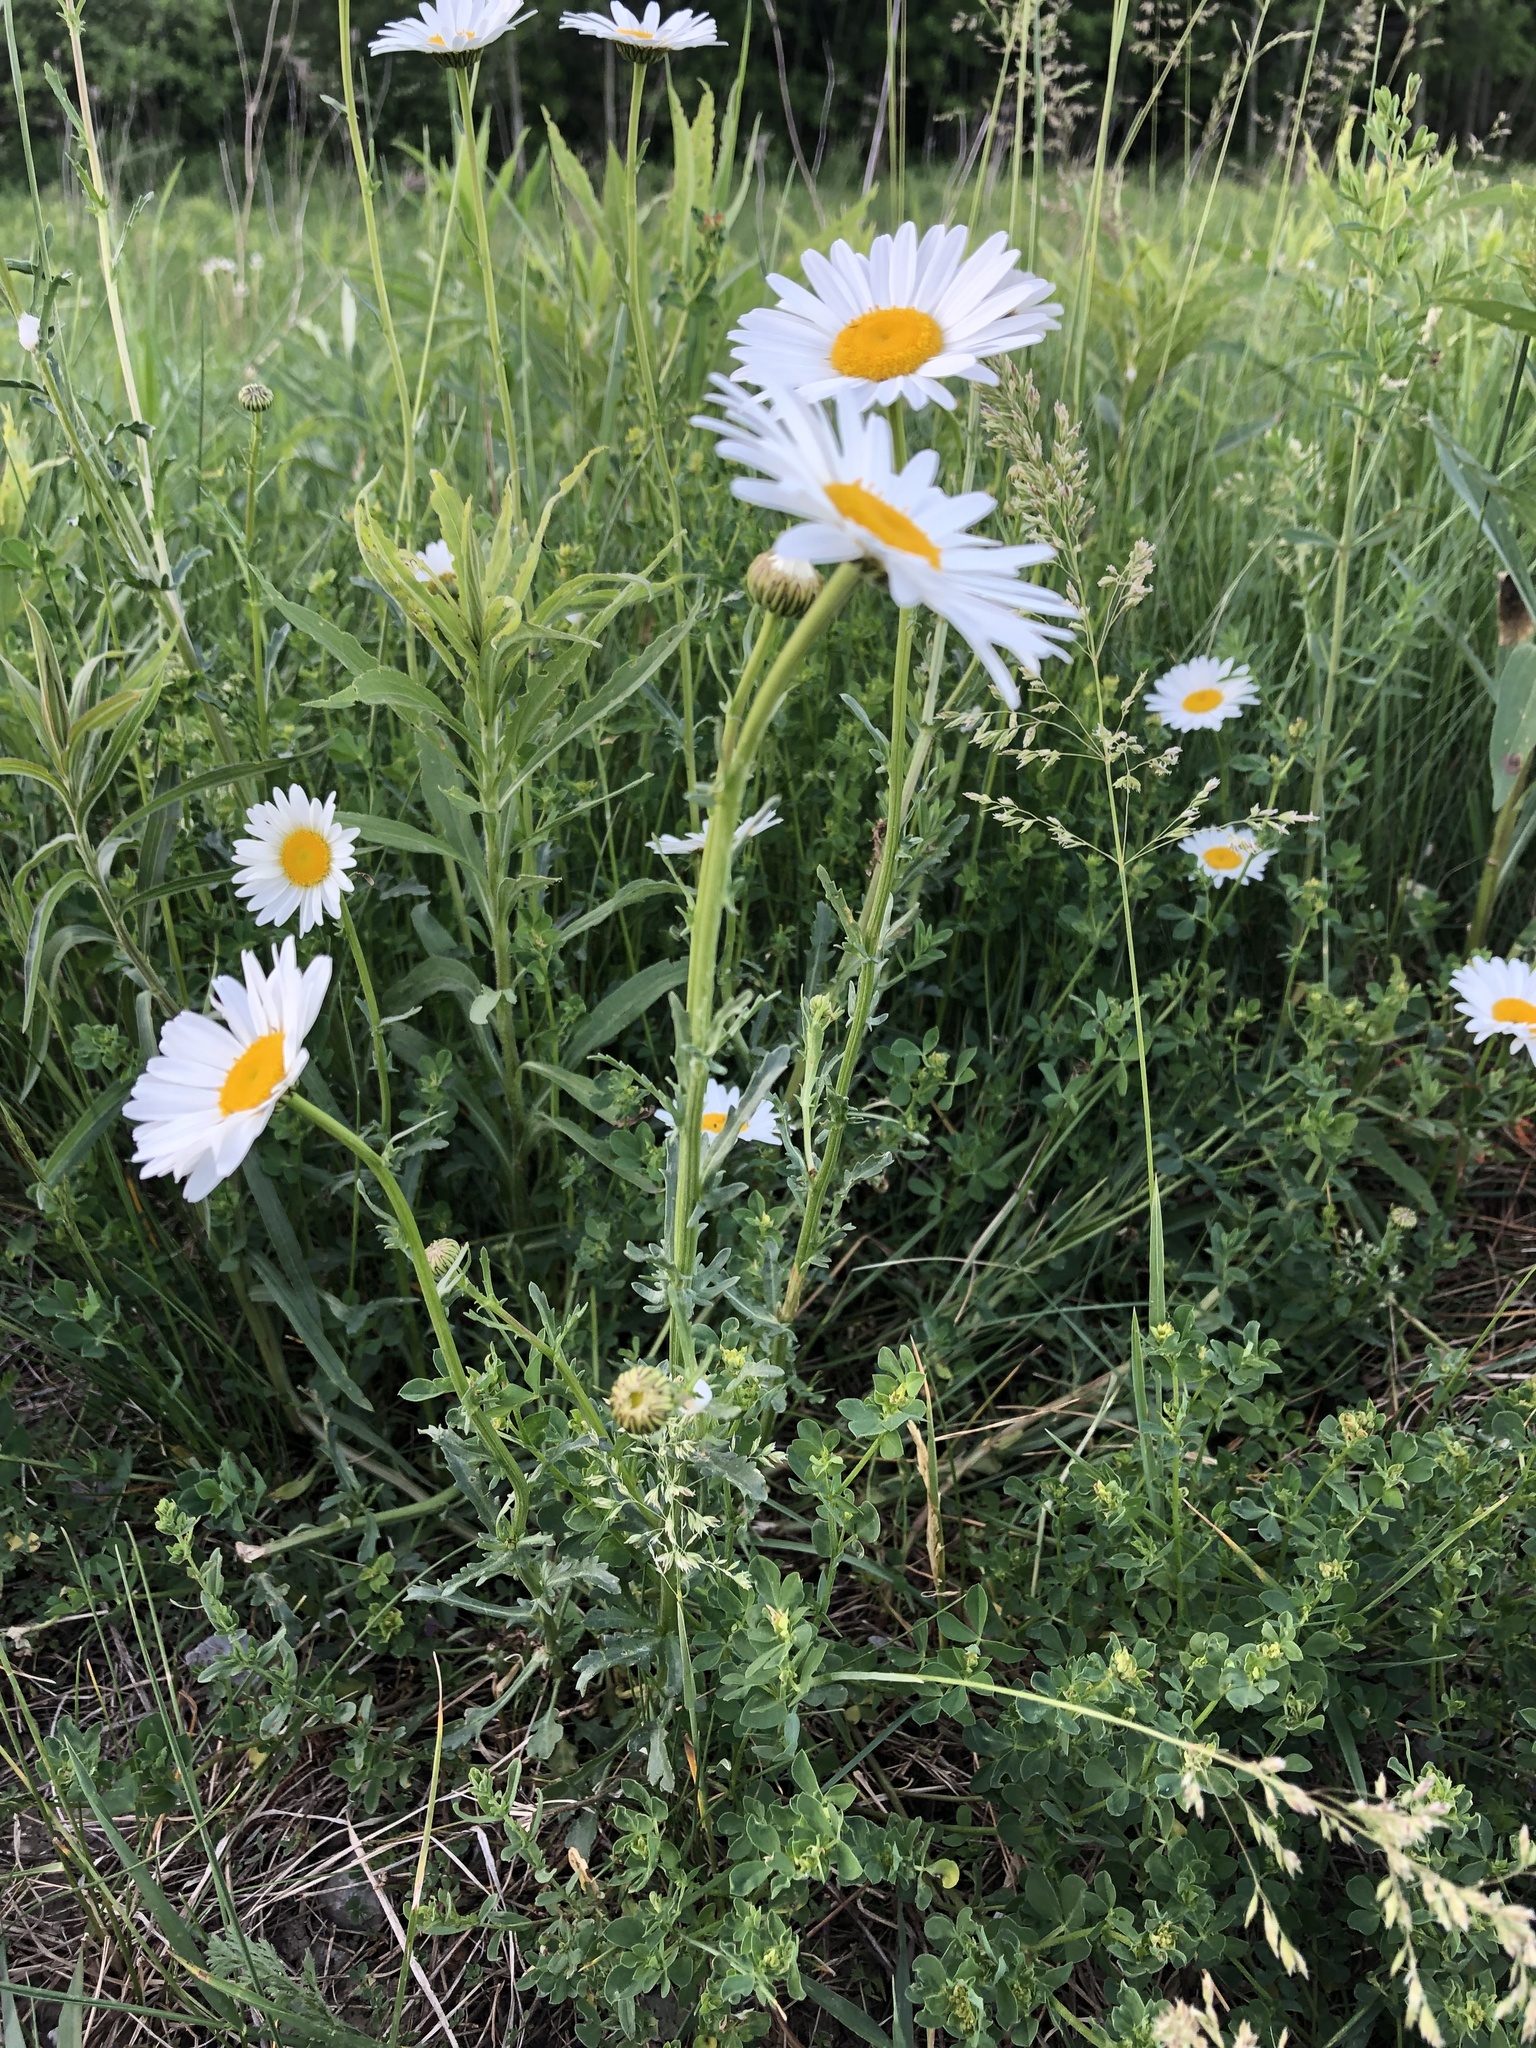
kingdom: Plantae
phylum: Tracheophyta
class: Magnoliopsida
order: Asterales
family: Asteraceae
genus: Leucanthemum
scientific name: Leucanthemum vulgare
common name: Oxeye daisy
